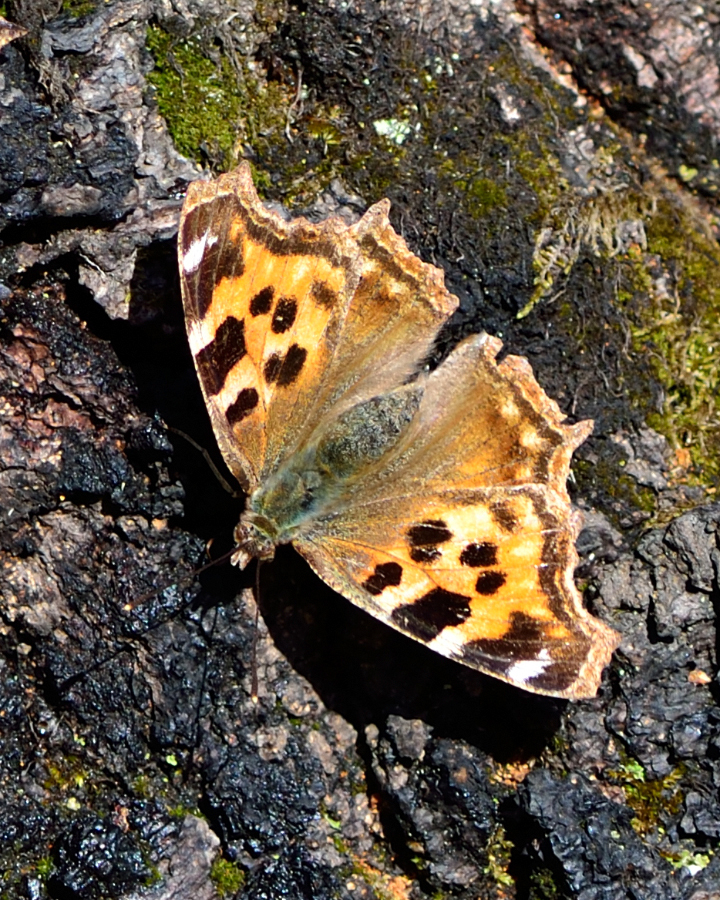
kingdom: Animalia
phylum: Arthropoda
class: Insecta
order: Lepidoptera
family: Nymphalidae
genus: Polygonia
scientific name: Polygonia vaualbum
